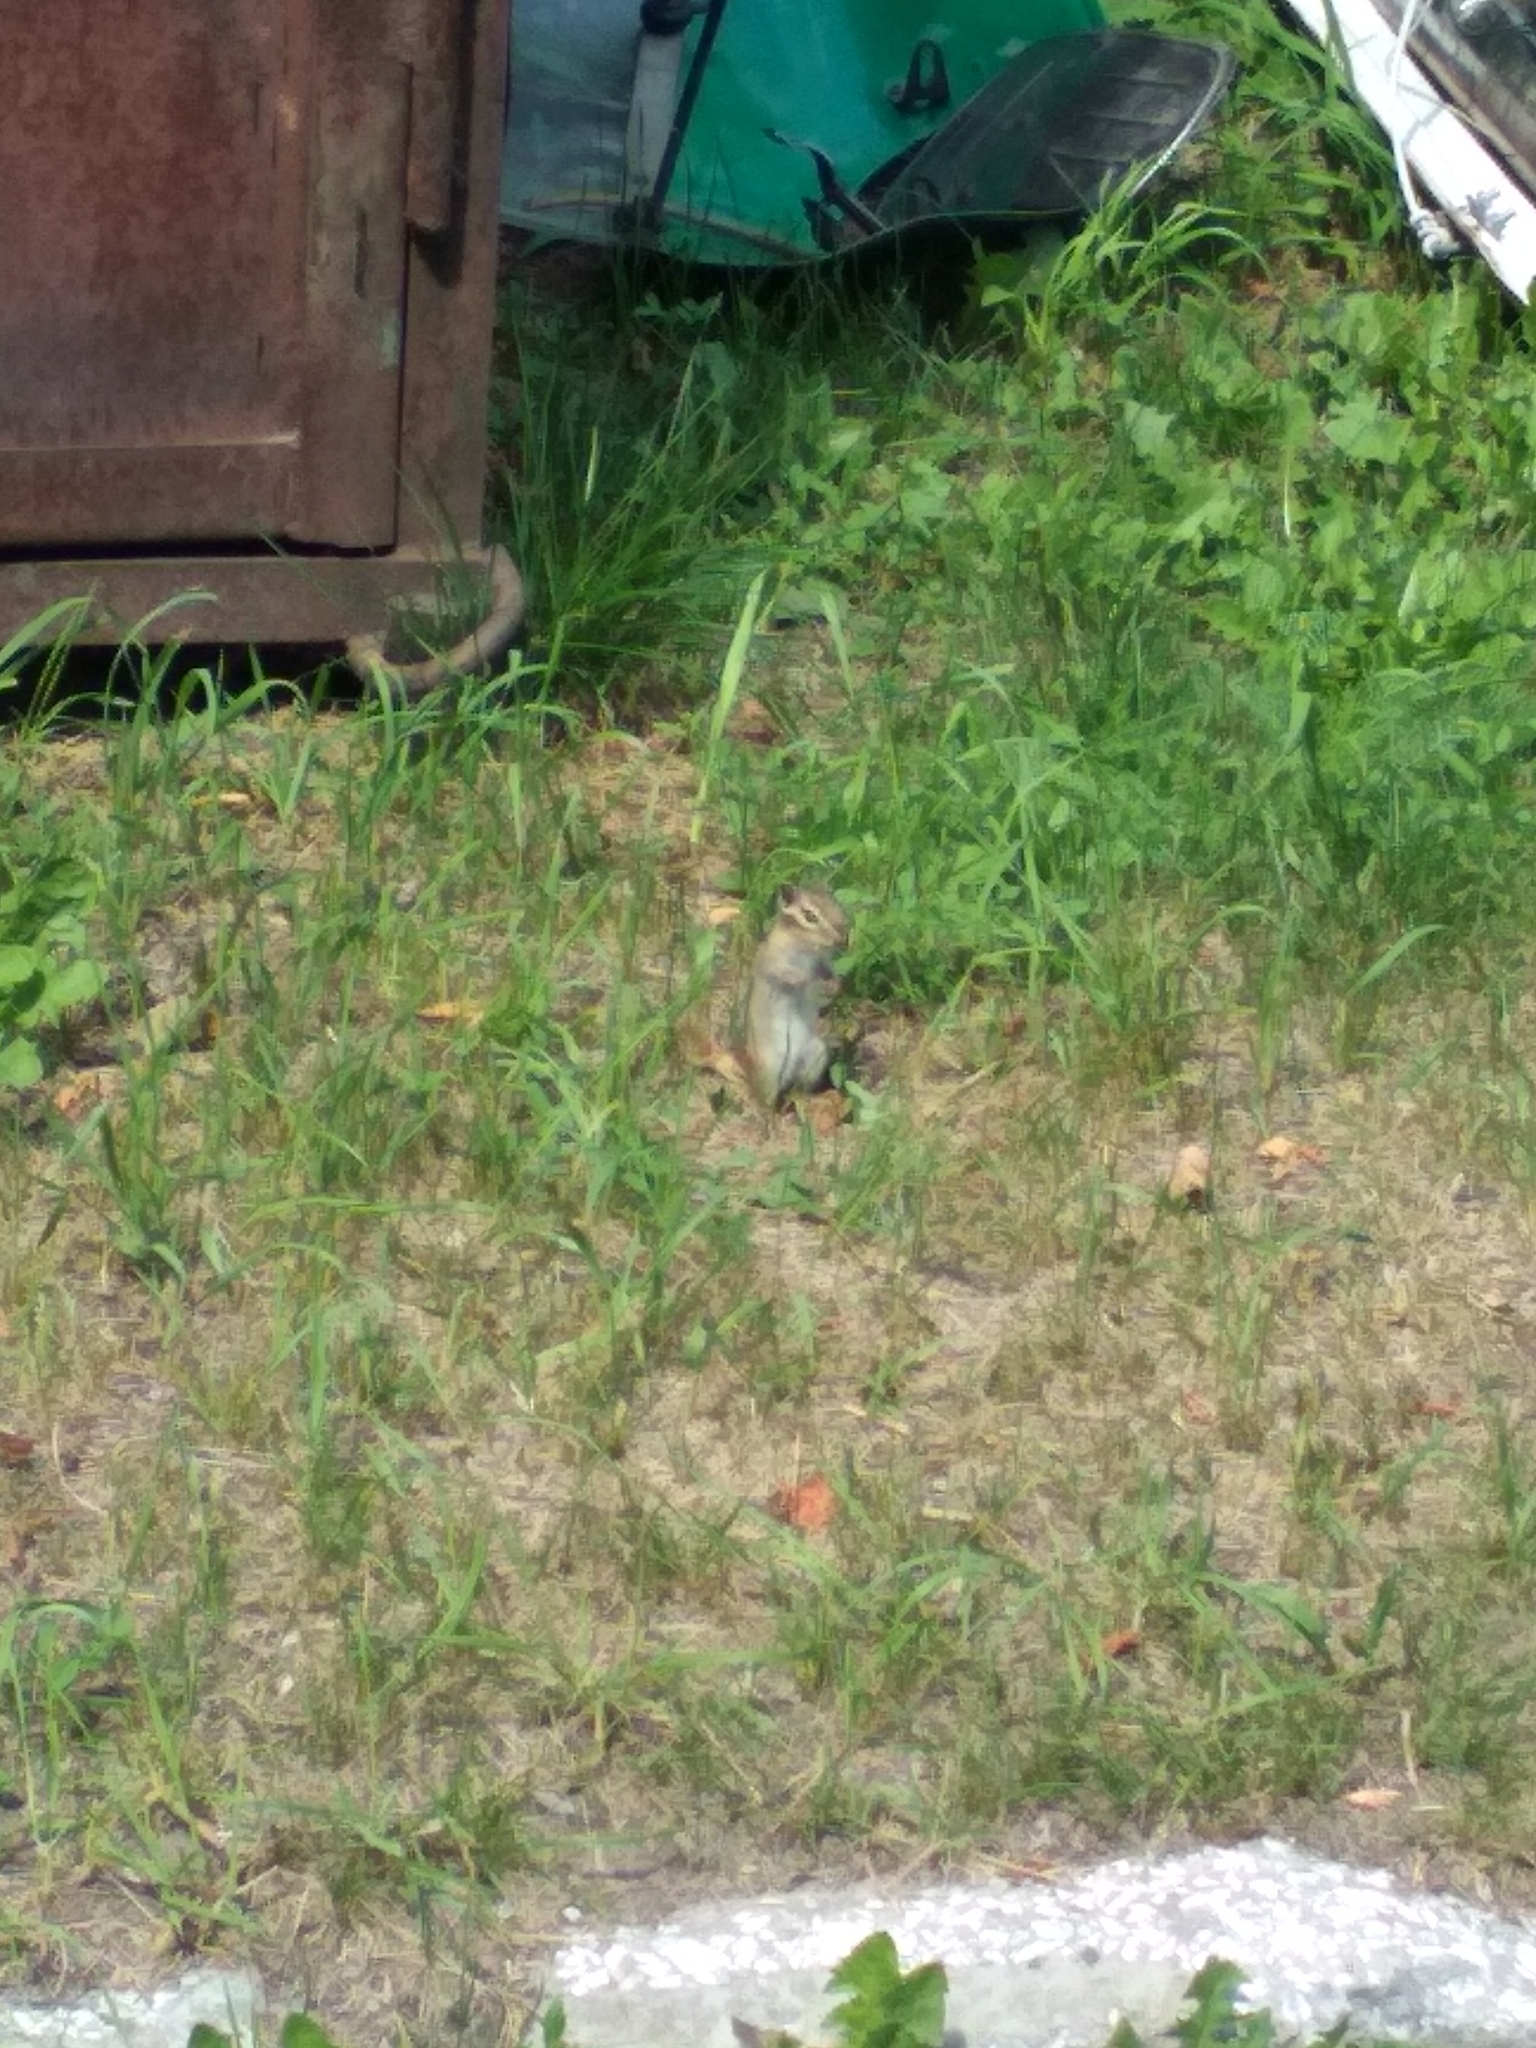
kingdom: Animalia
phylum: Chordata
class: Mammalia
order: Rodentia
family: Sciuridae
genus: Tamias
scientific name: Tamias sibiricus
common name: Siberian chipmunk
